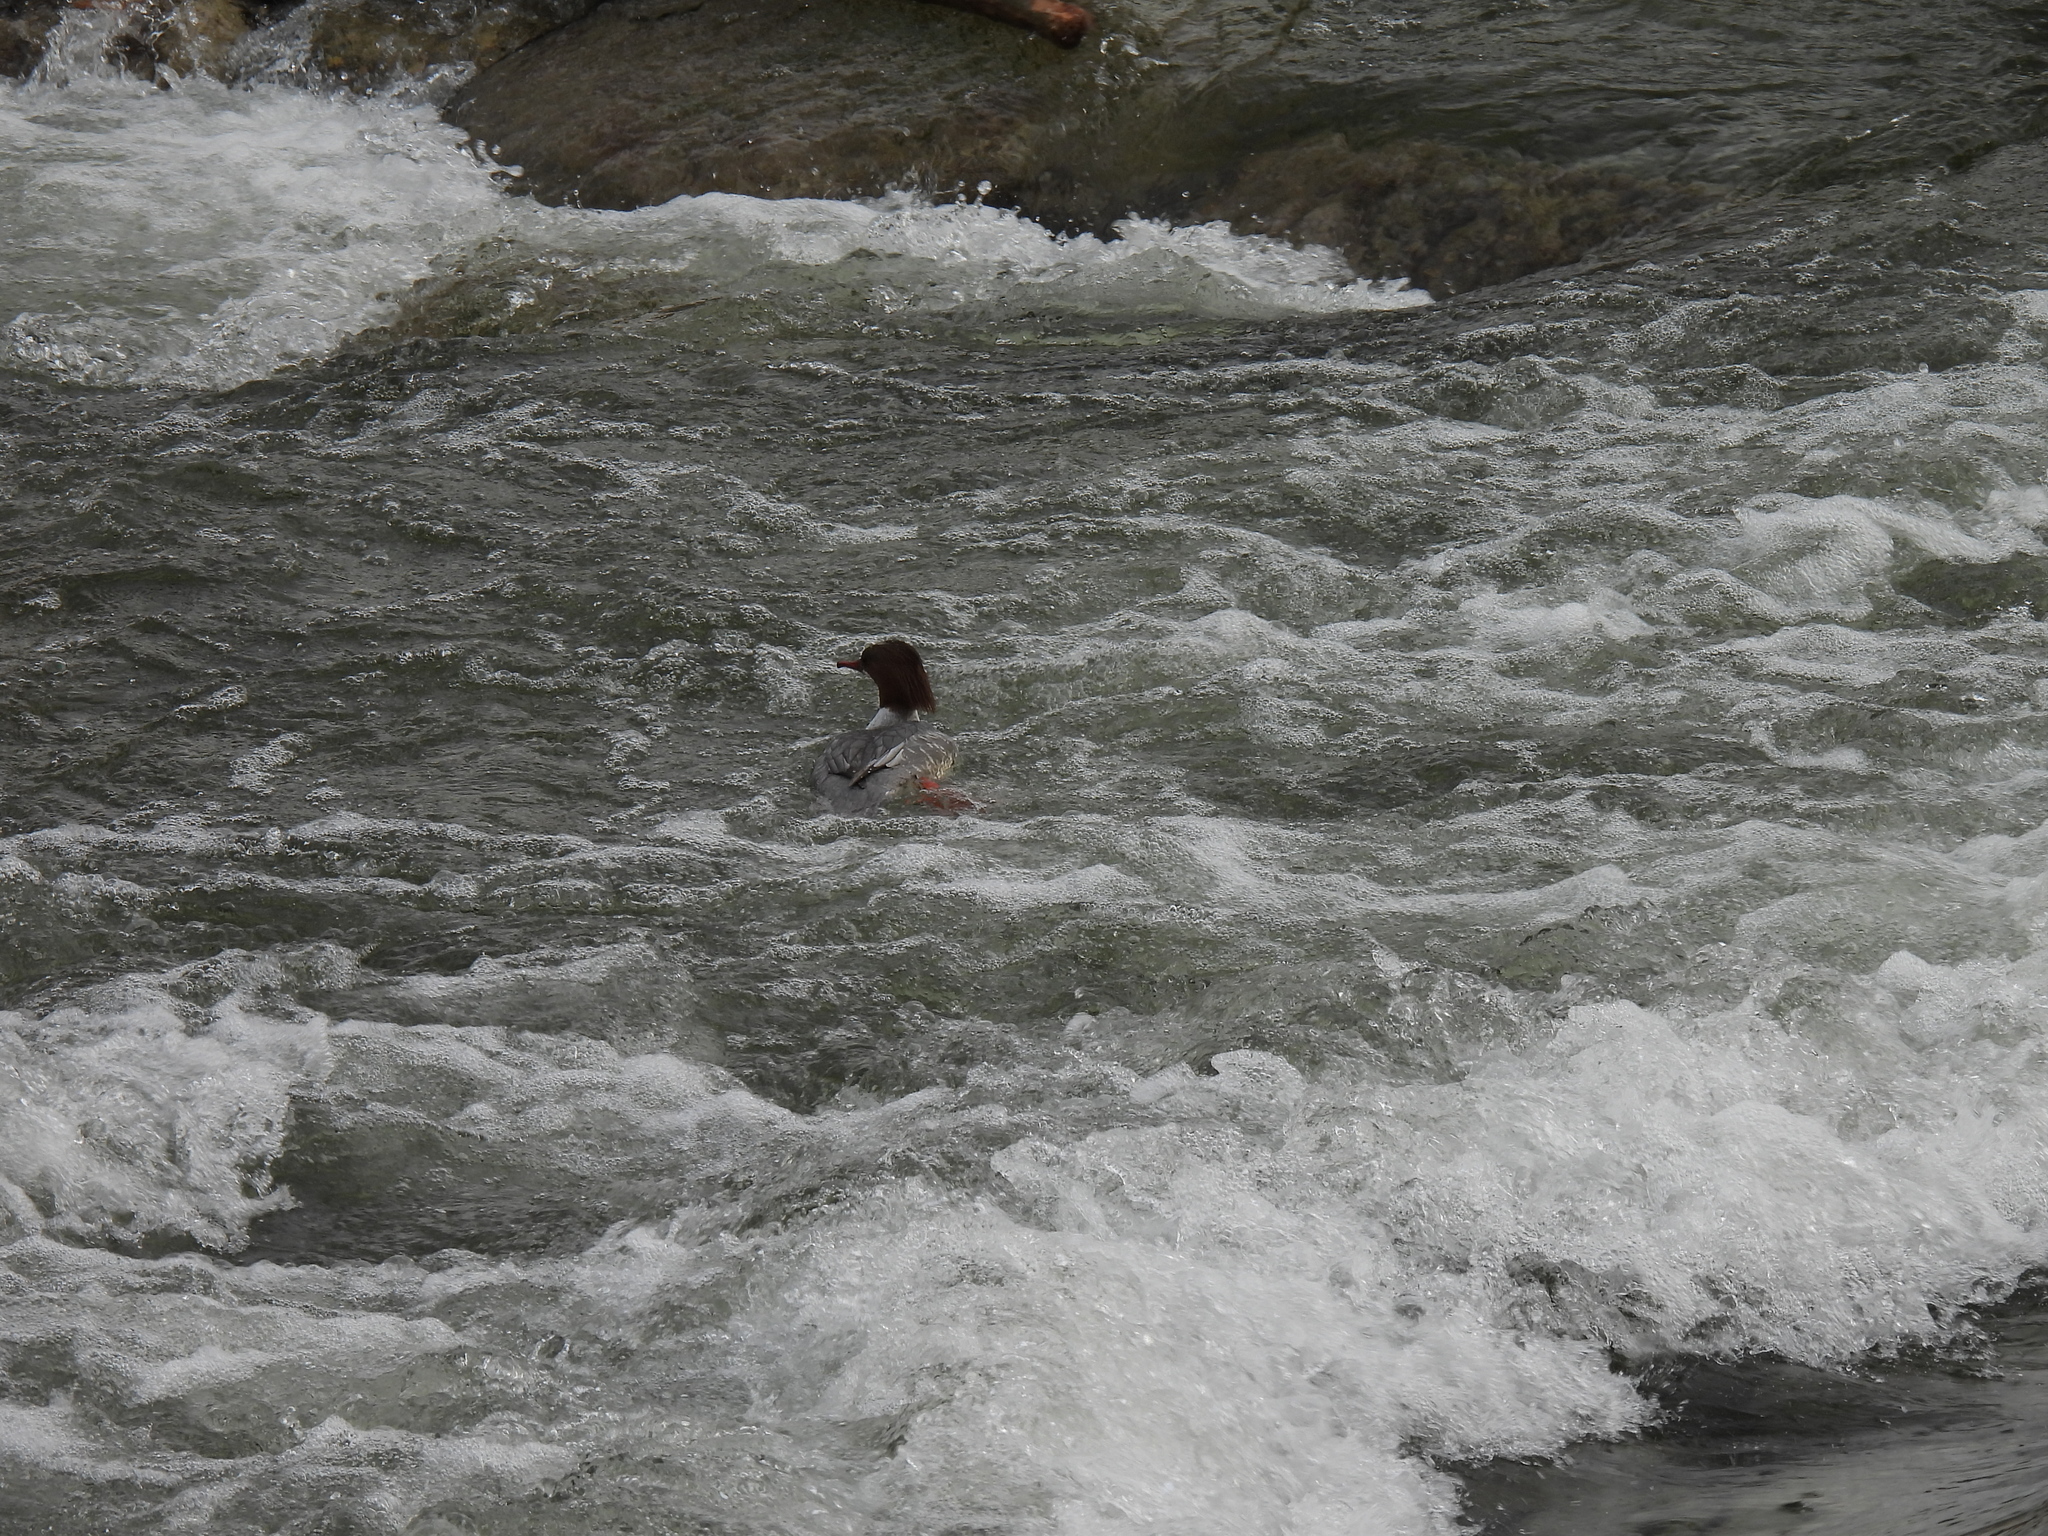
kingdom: Animalia
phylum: Chordata
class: Aves
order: Anseriformes
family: Anatidae
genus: Mergus
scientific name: Mergus merganser
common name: Common merganser
